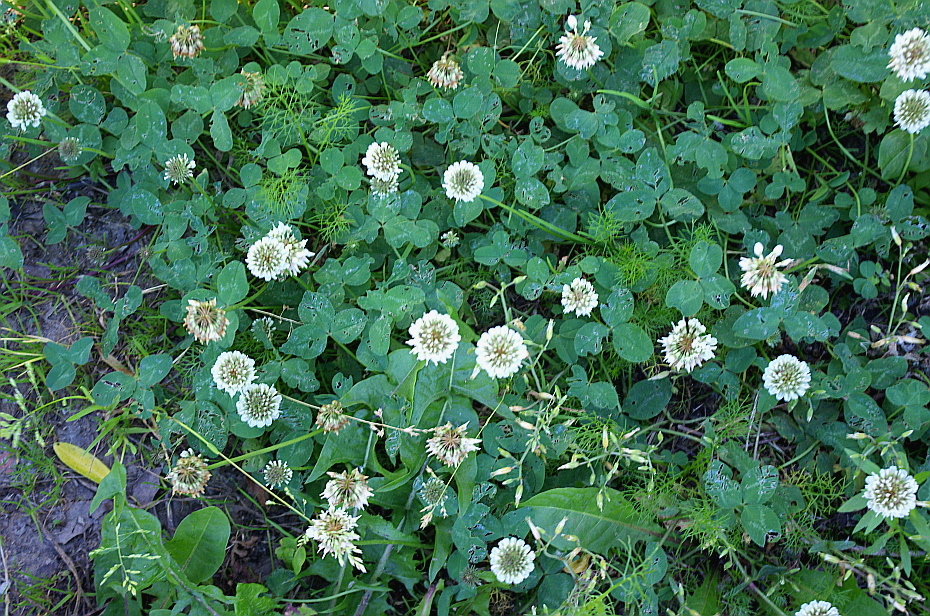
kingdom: Plantae
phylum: Tracheophyta
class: Magnoliopsida
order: Fabales
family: Fabaceae
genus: Trifolium
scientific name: Trifolium repens
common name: White clover
